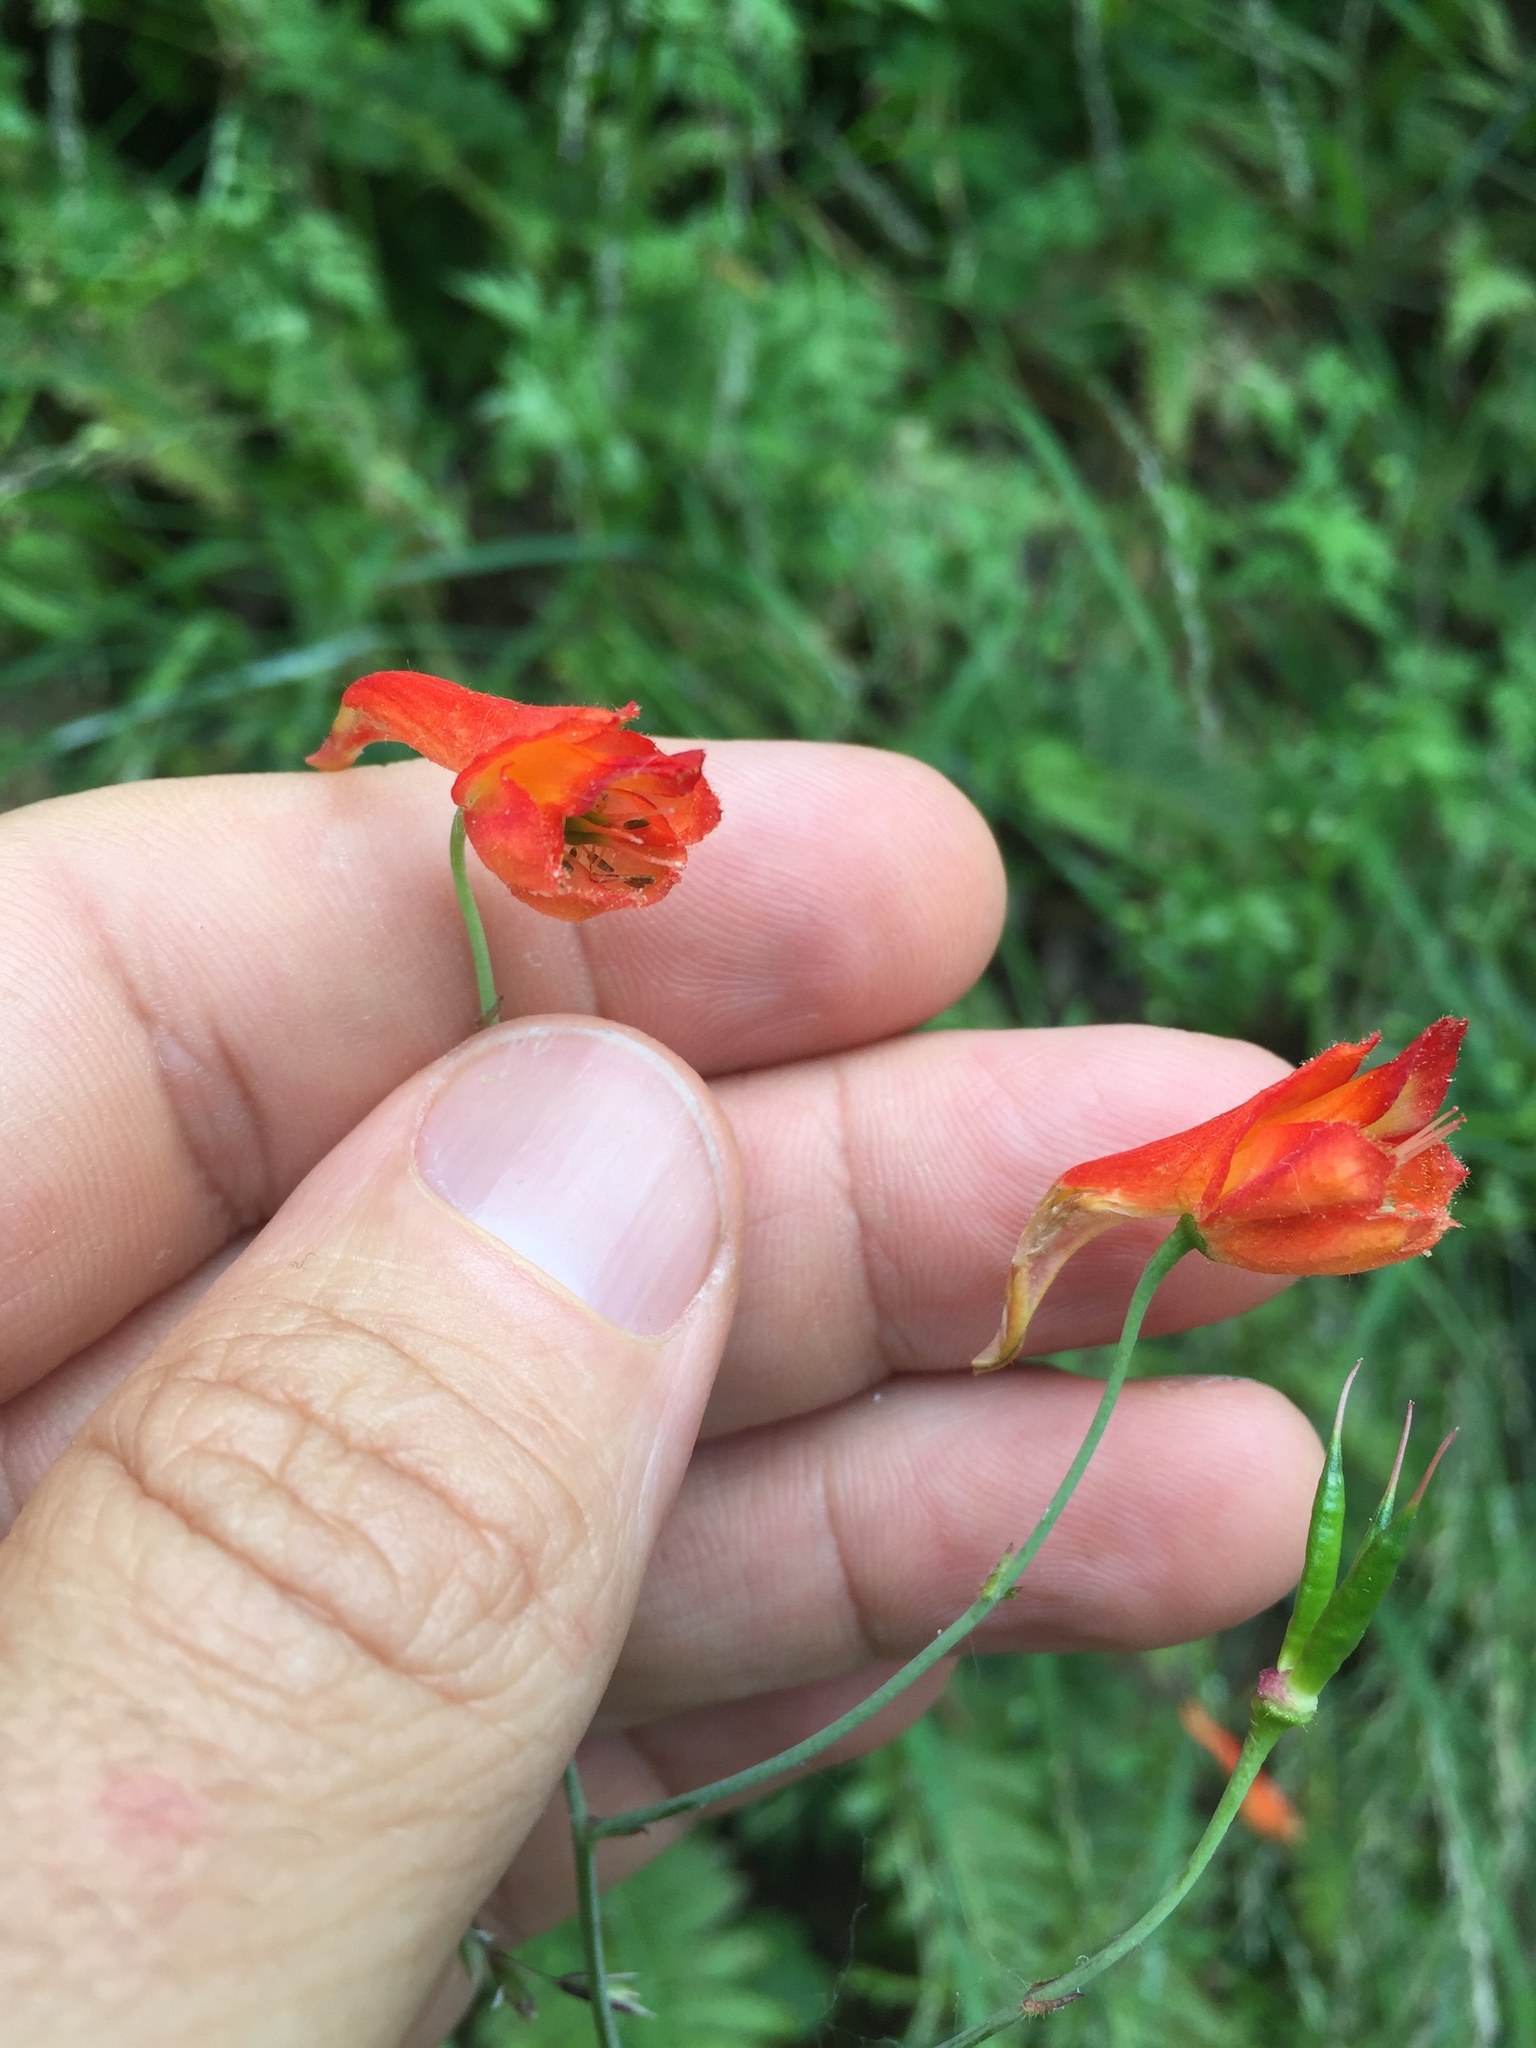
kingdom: Plantae
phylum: Tracheophyta
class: Magnoliopsida
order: Ranunculales
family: Ranunculaceae
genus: Delphinium
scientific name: Delphinium nudicaule
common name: Red larkspur
